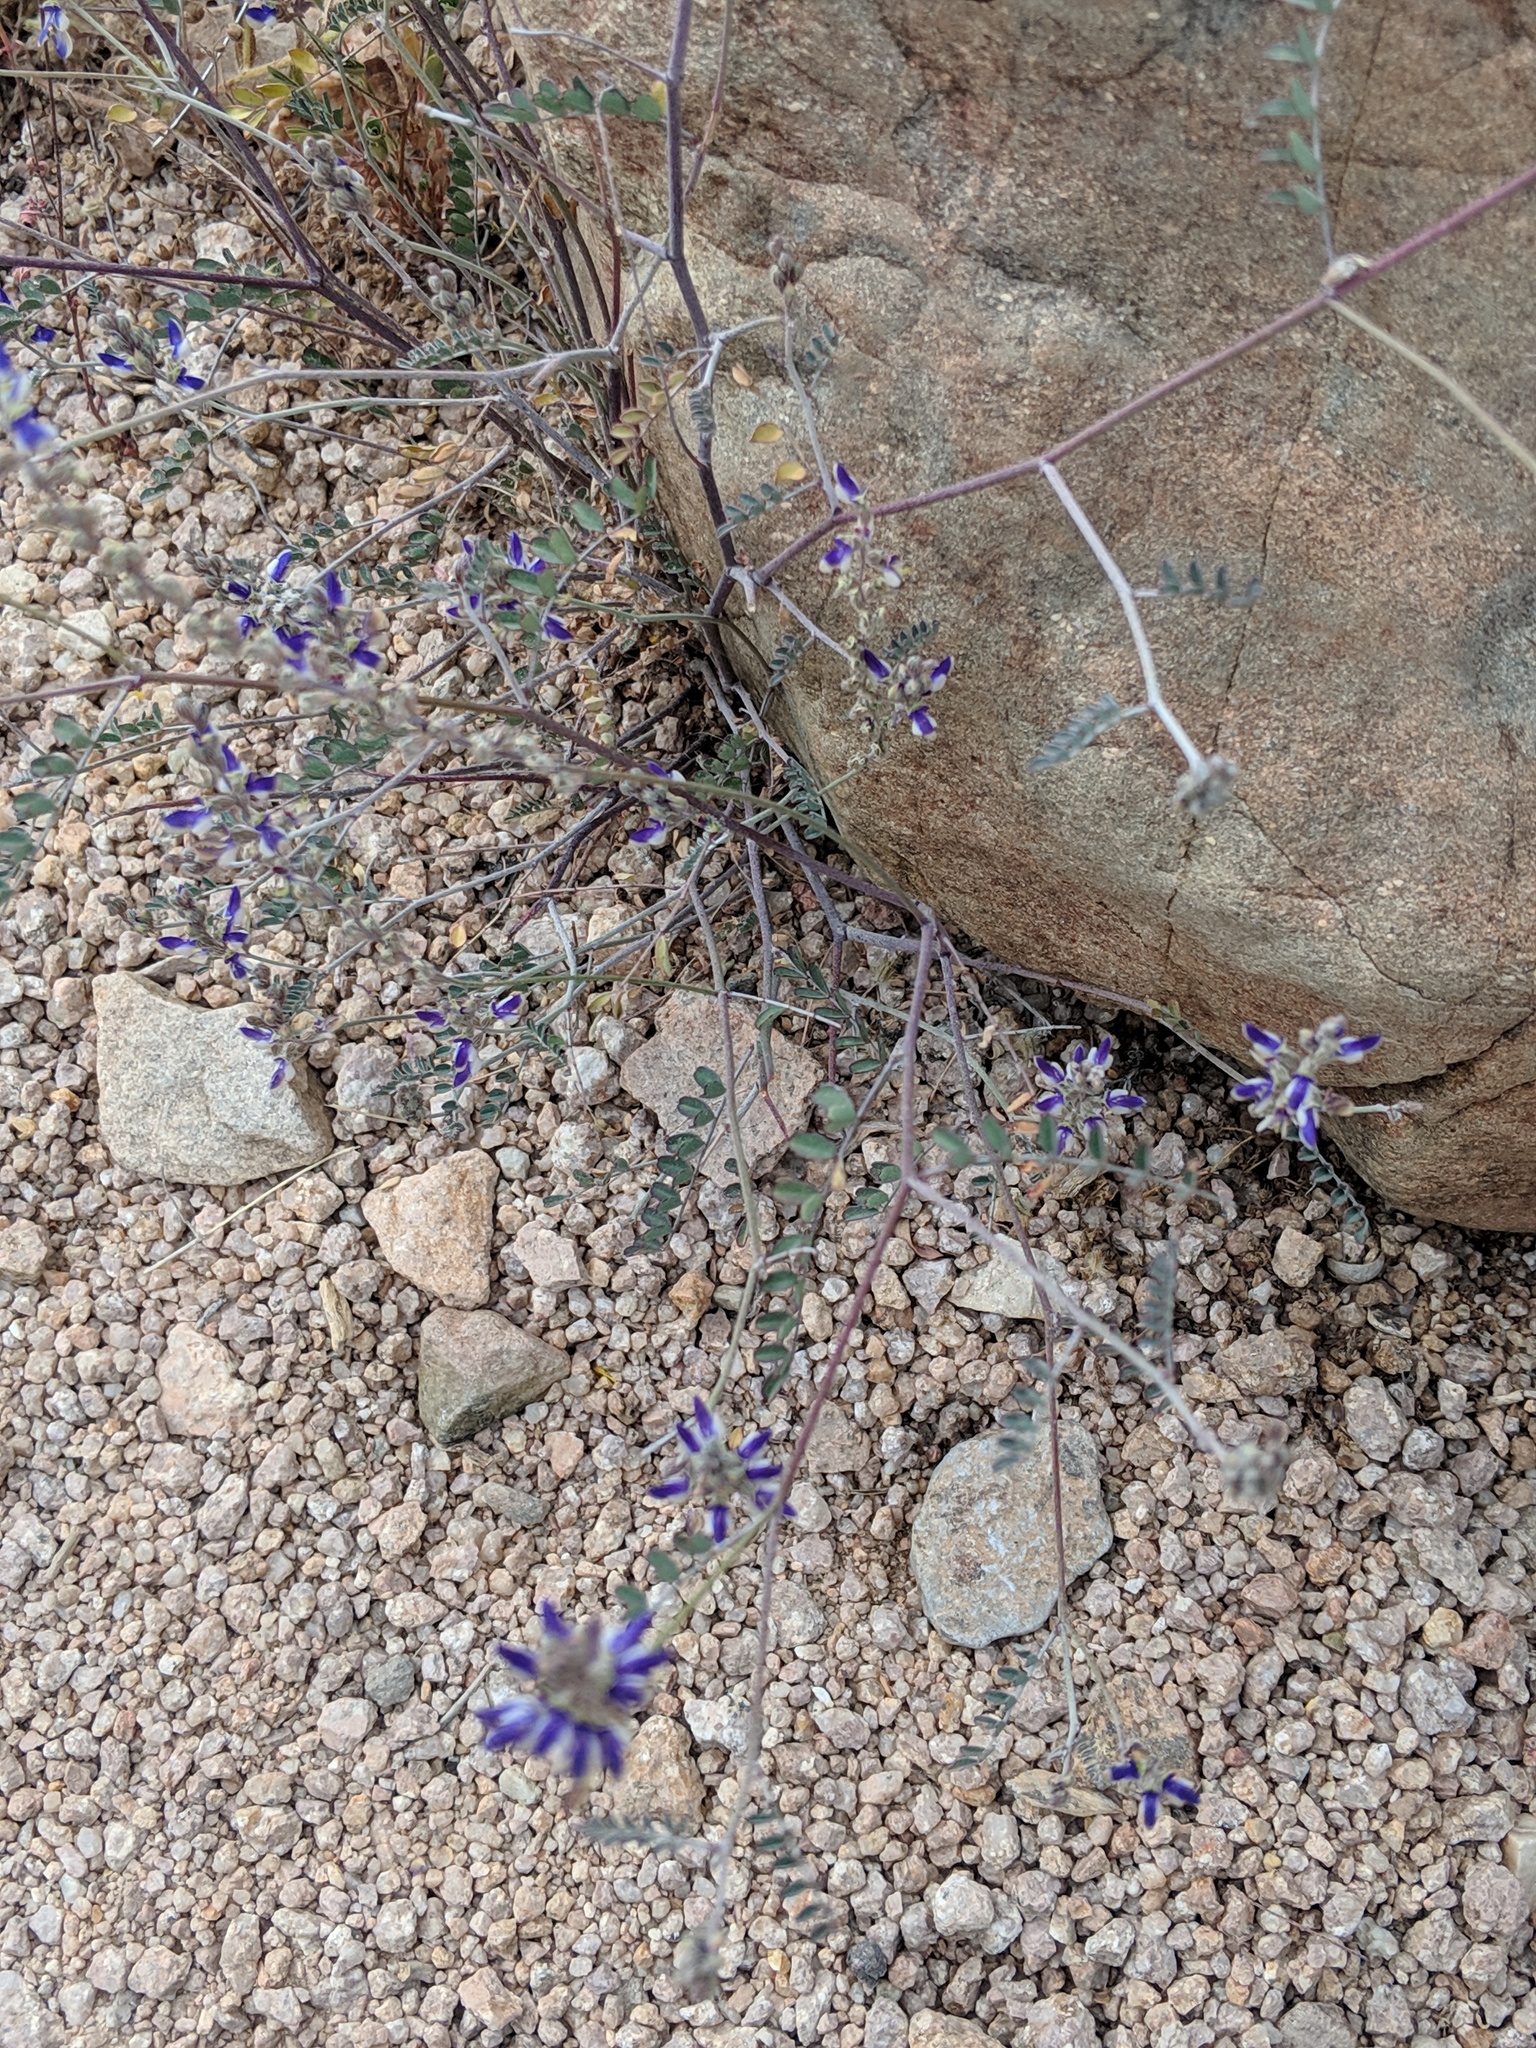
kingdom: Plantae
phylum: Tracheophyta
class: Magnoliopsida
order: Fabales
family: Fabaceae
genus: Marina
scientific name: Marina parryi
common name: Parry's marina
